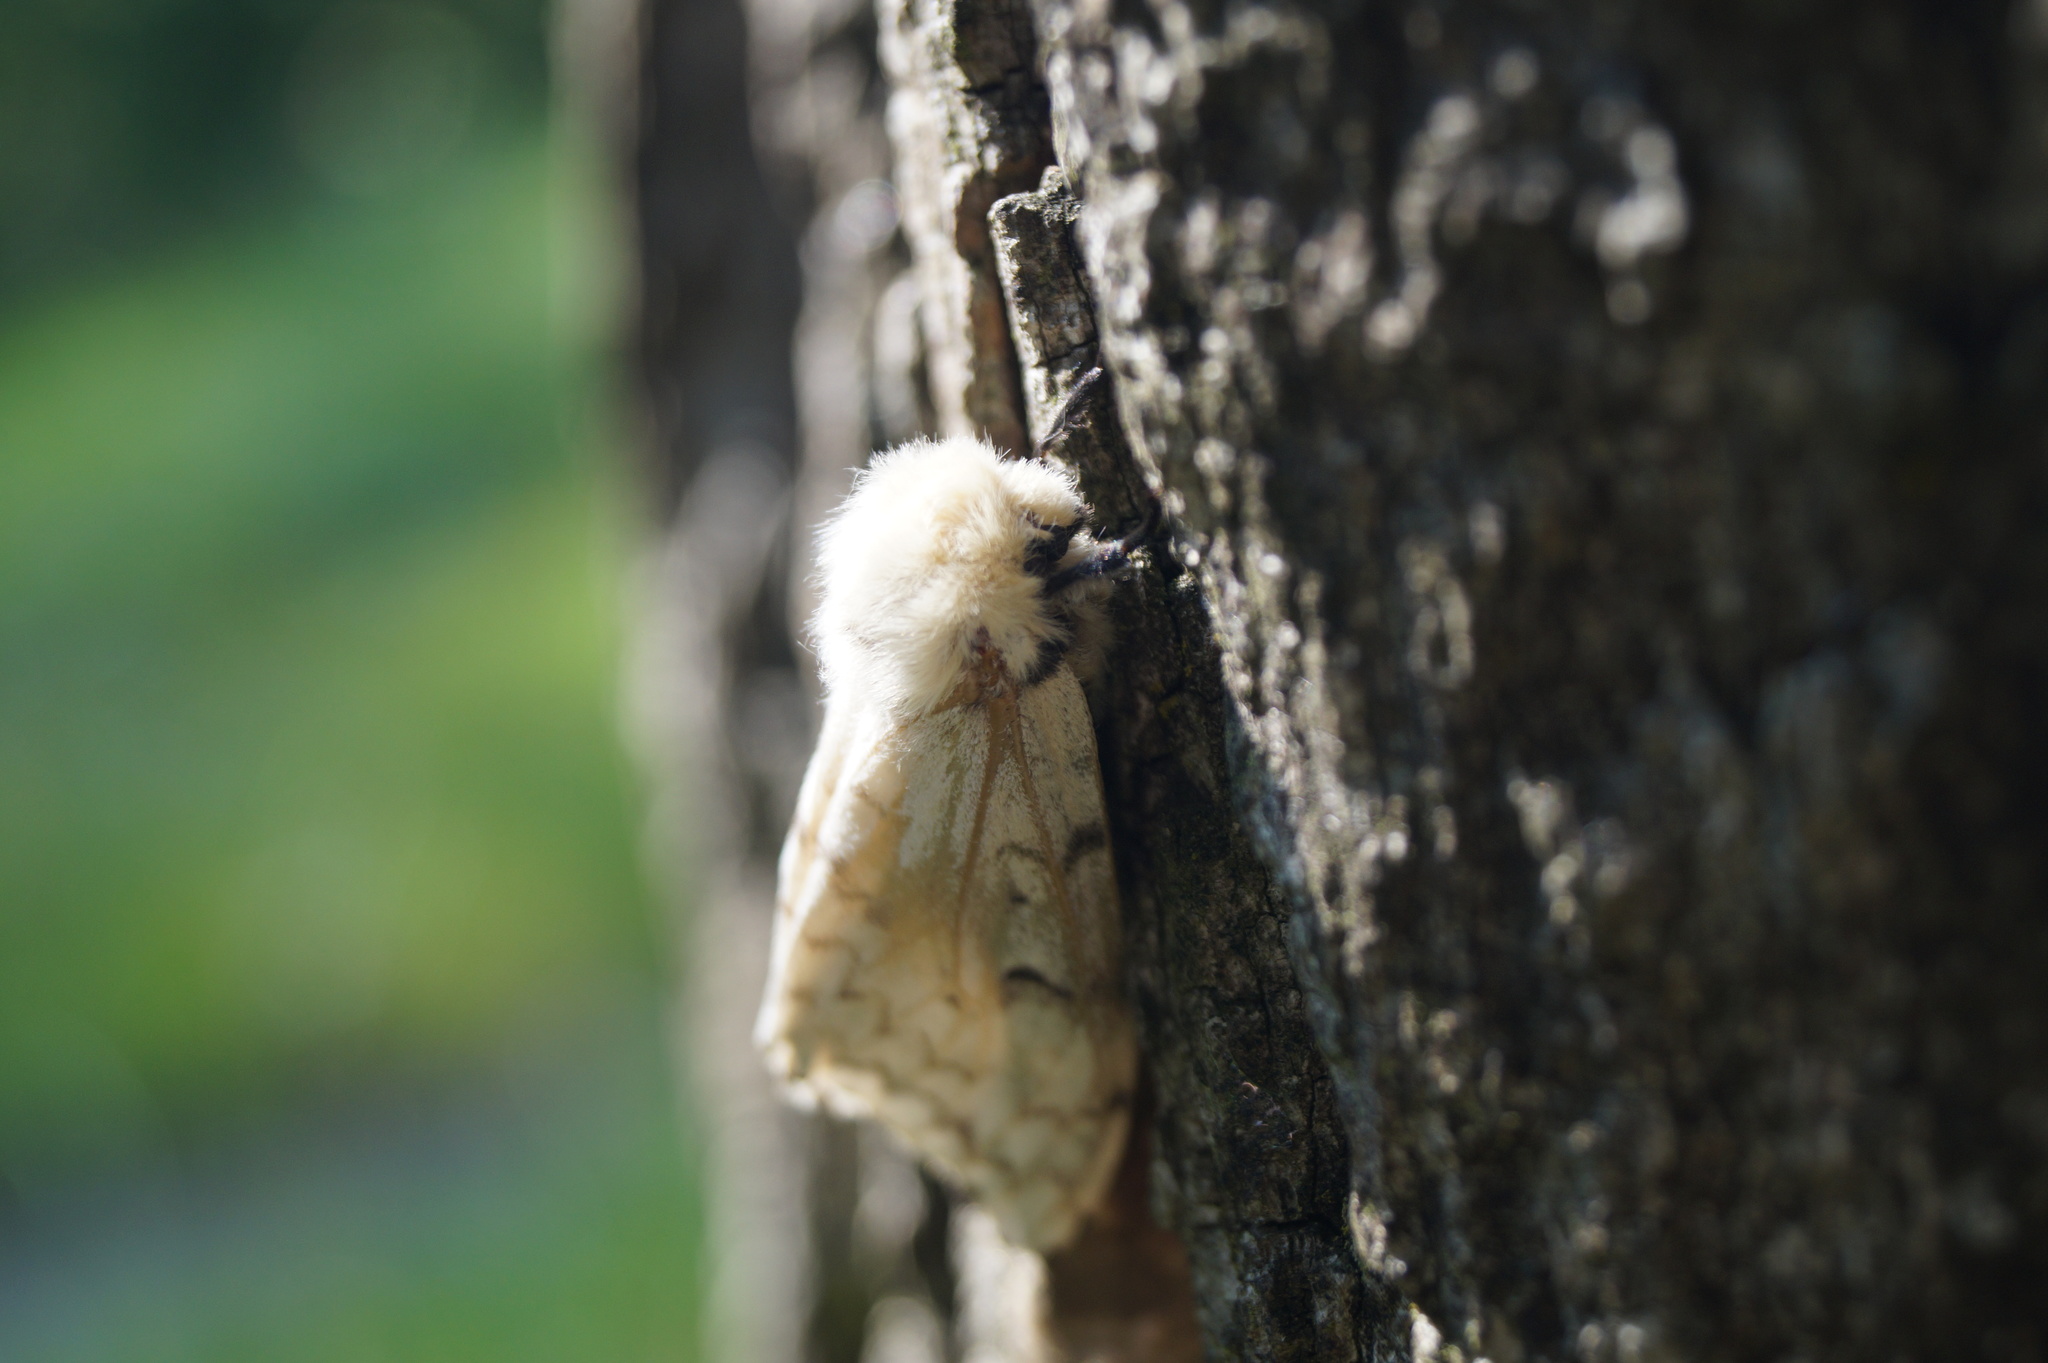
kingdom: Animalia
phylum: Arthropoda
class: Insecta
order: Lepidoptera
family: Erebidae
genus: Lymantria
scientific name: Lymantria dispar
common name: Gypsy moth
